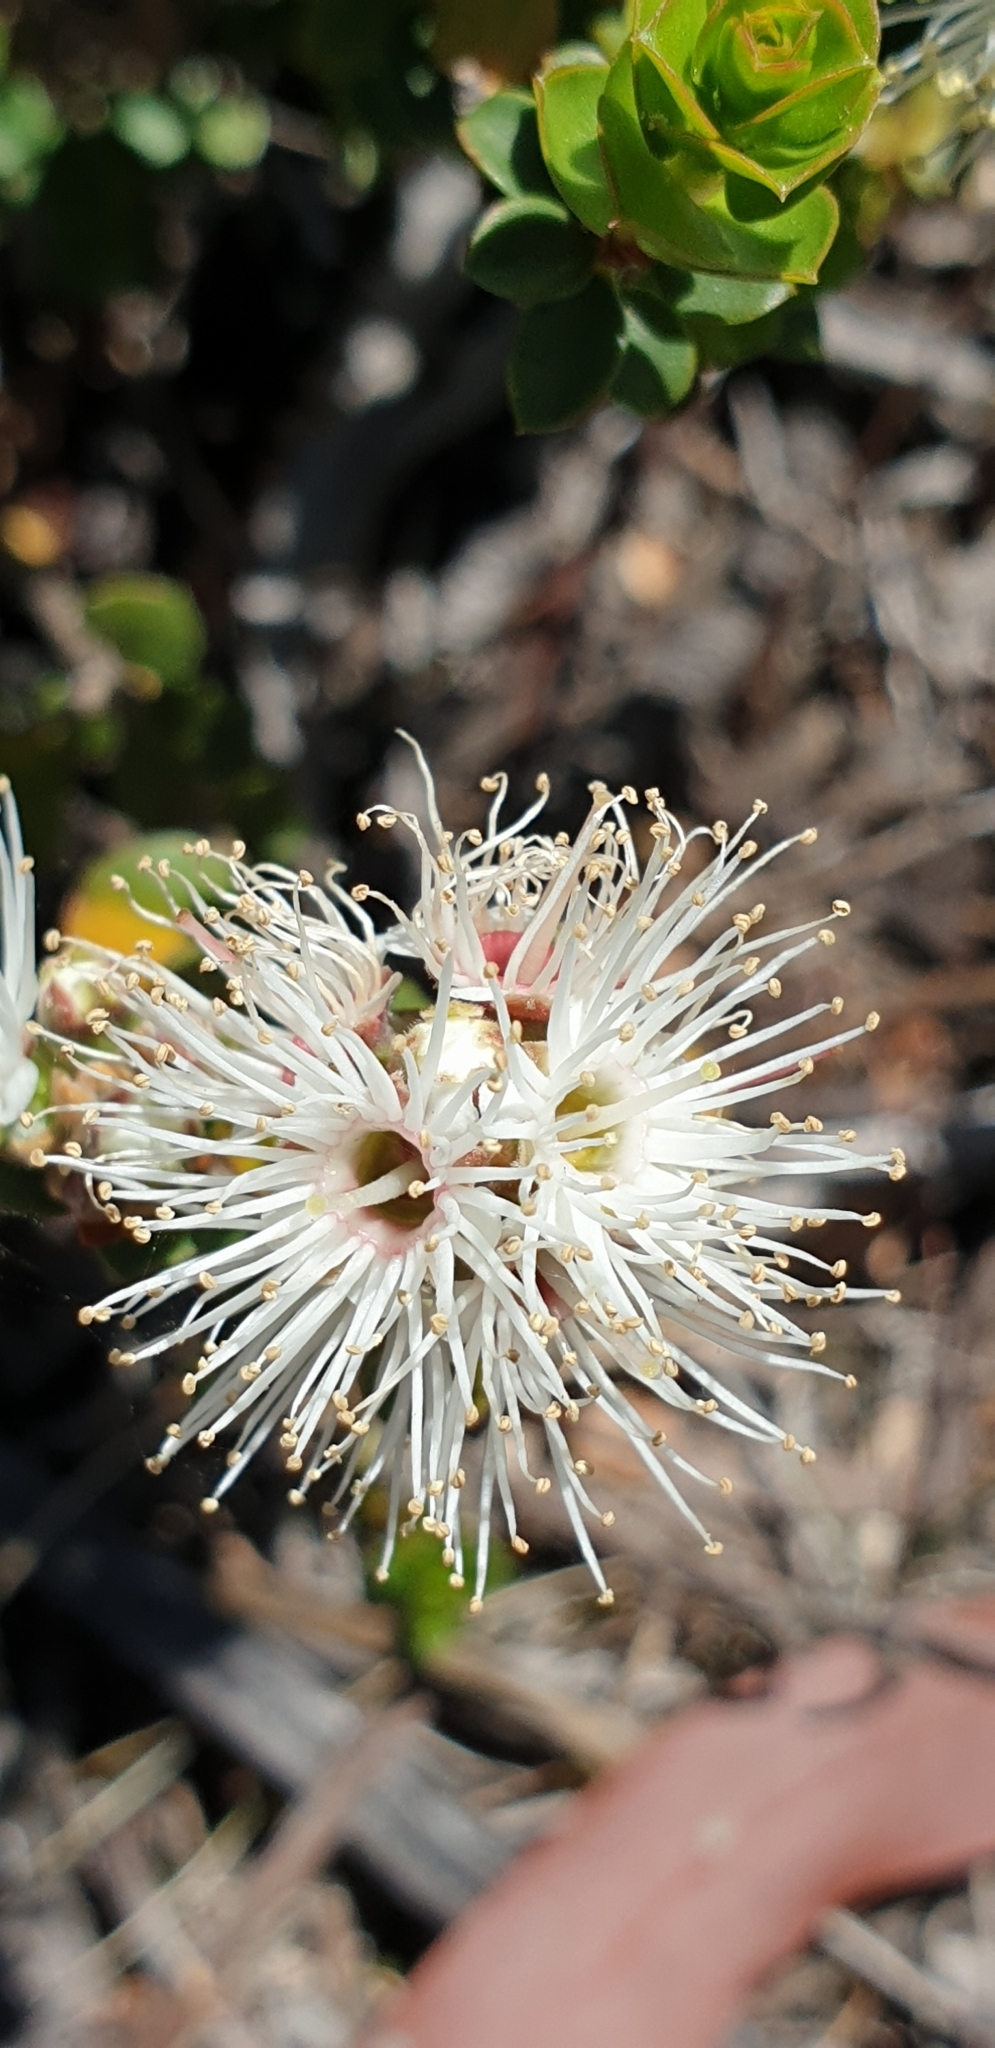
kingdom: Plantae
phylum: Tracheophyta
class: Magnoliopsida
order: Myrtales
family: Myrtaceae
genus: Kunzea
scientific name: Kunzea pomifera
